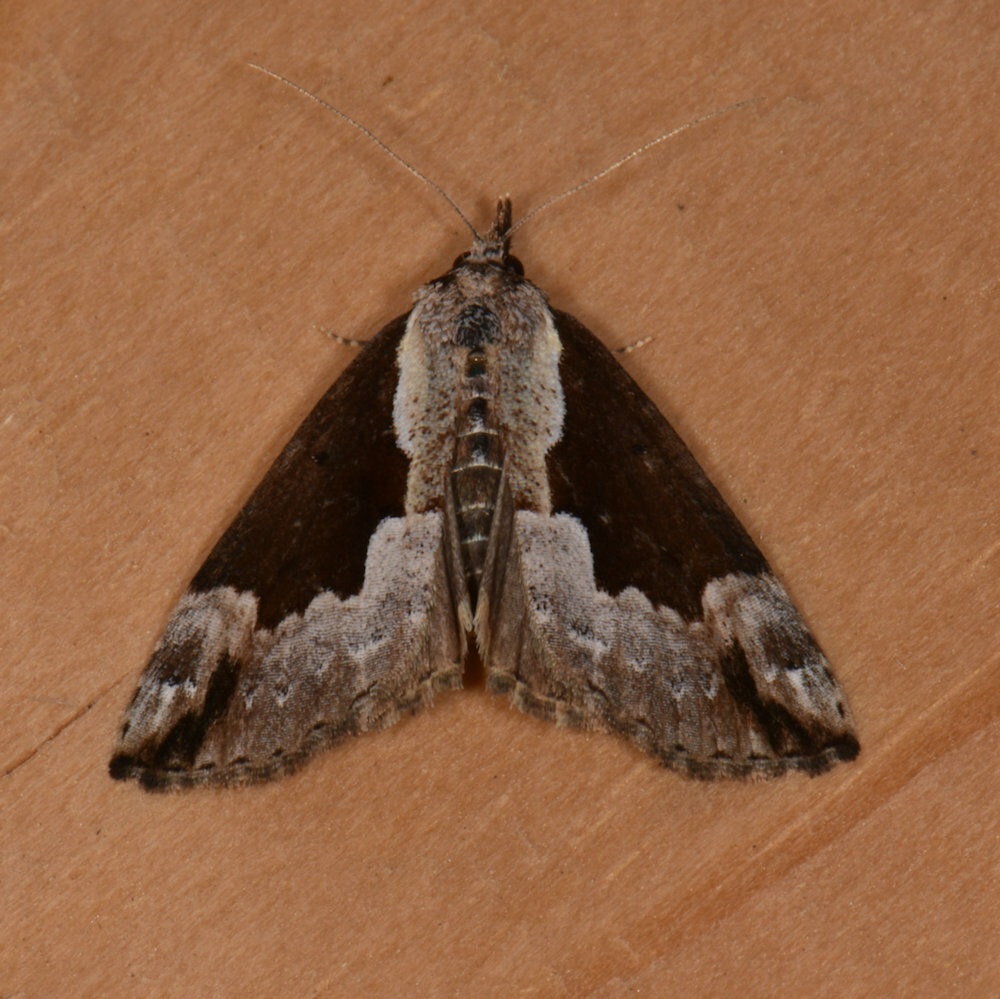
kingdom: Animalia
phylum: Arthropoda
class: Insecta
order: Lepidoptera
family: Erebidae
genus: Hypena
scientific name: Hypena baltimoralis
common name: Baltimore snout
